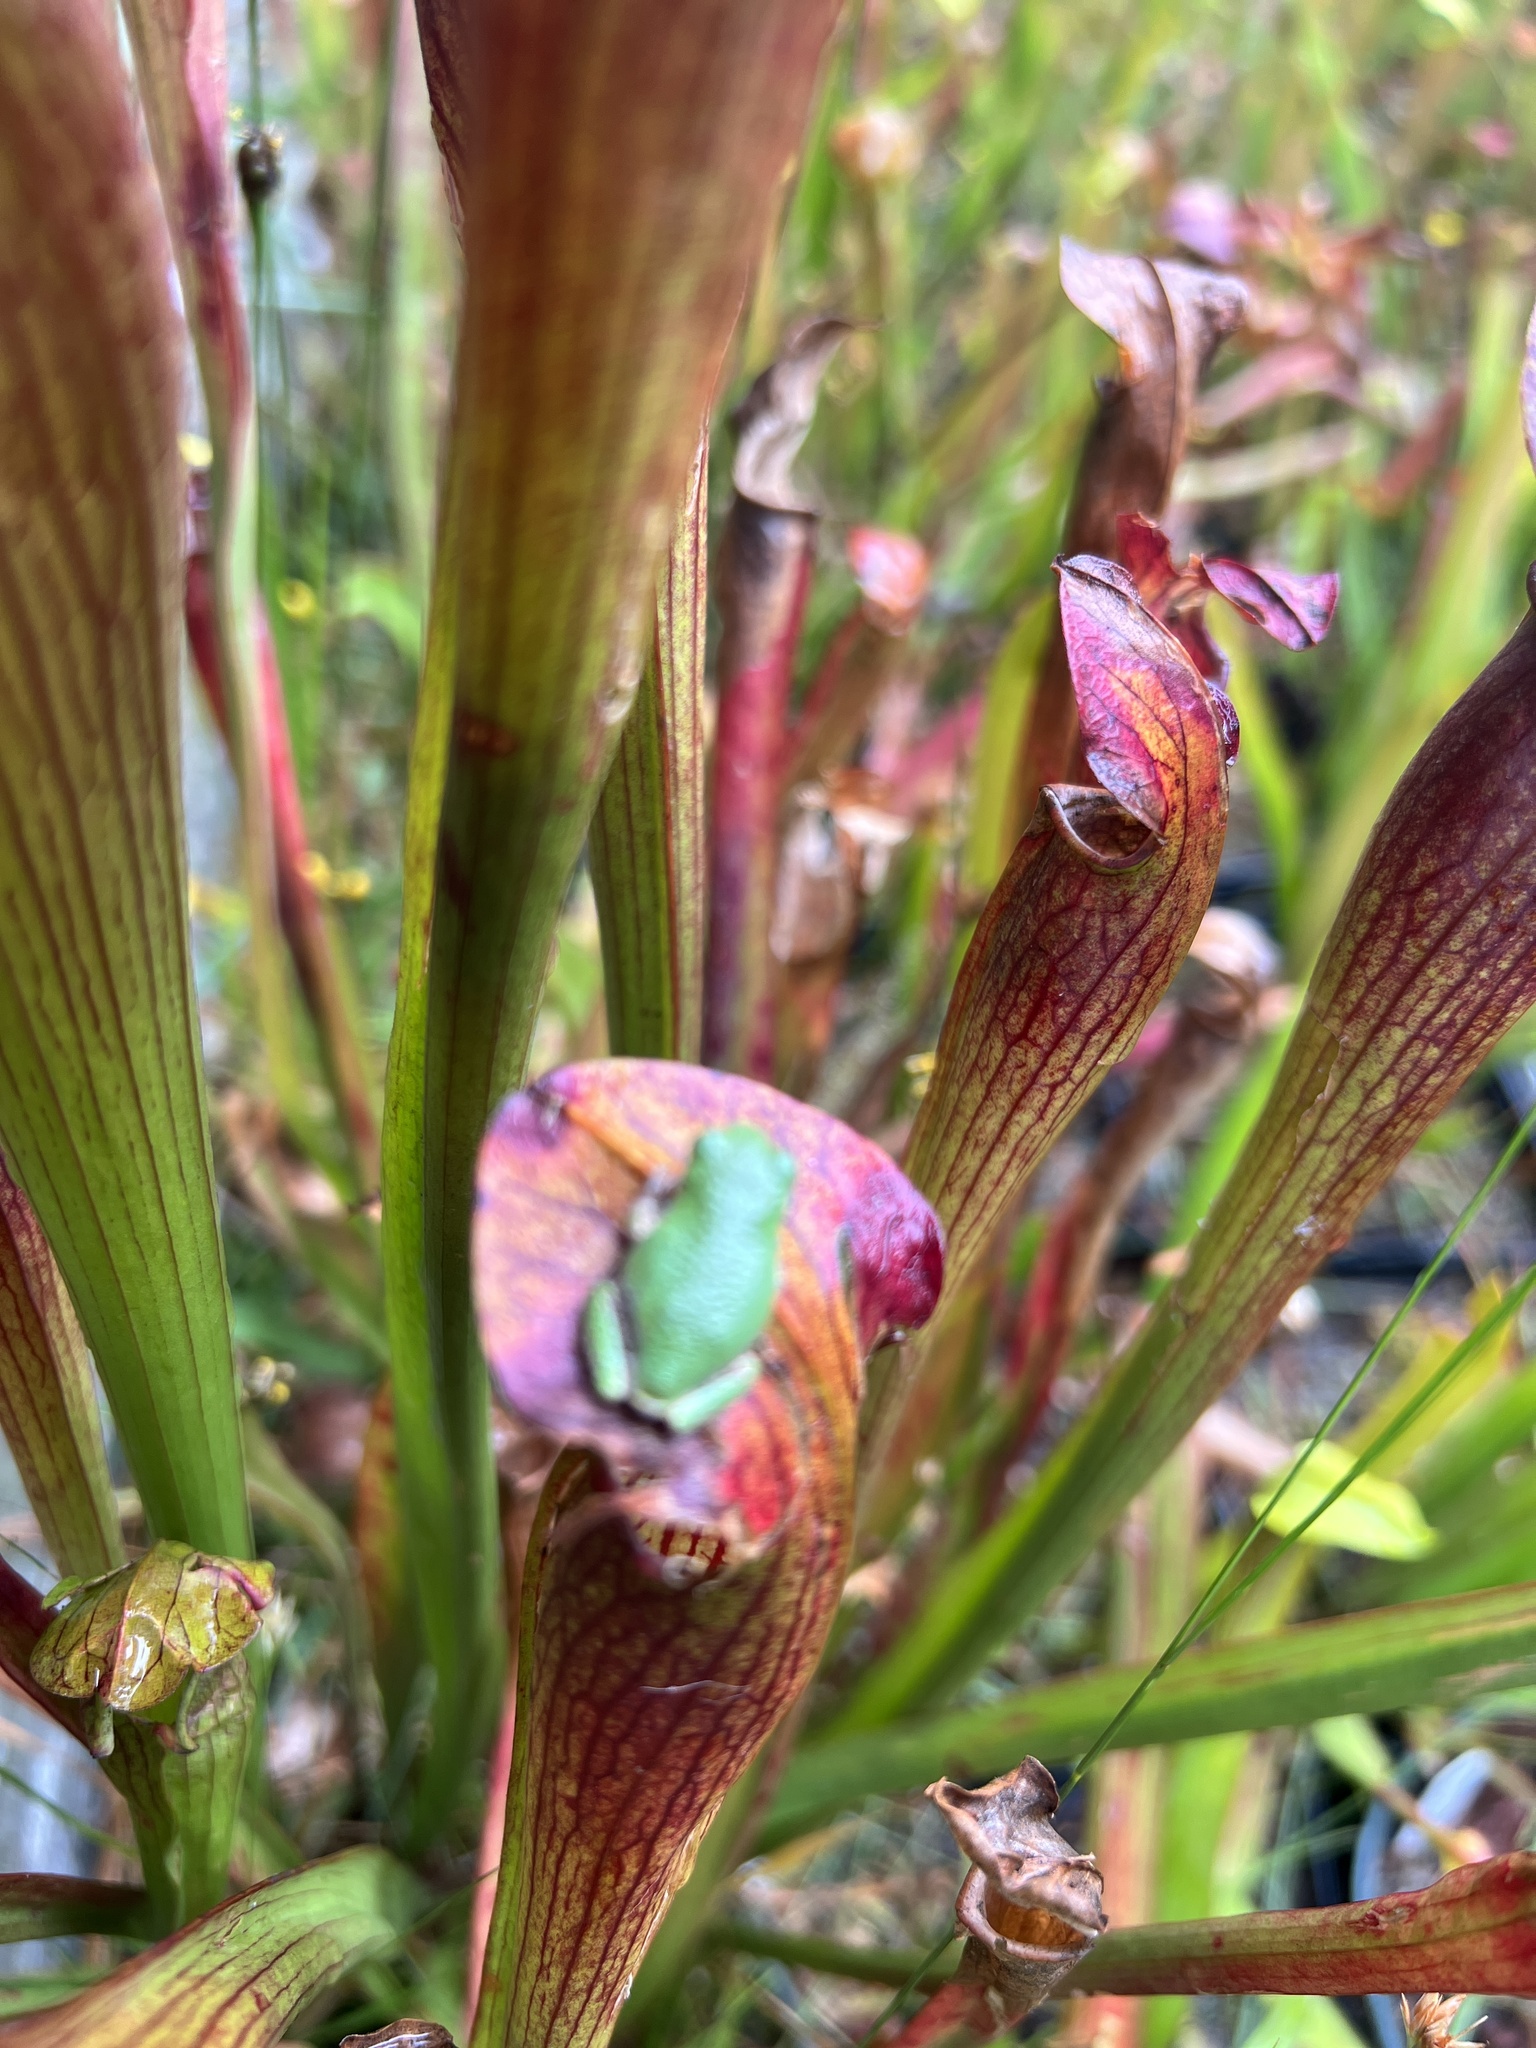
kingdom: Animalia
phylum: Chordata
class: Amphibia
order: Anura
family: Hylidae
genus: Dryophytes
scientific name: Dryophytes versicolor
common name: Gray treefrog
